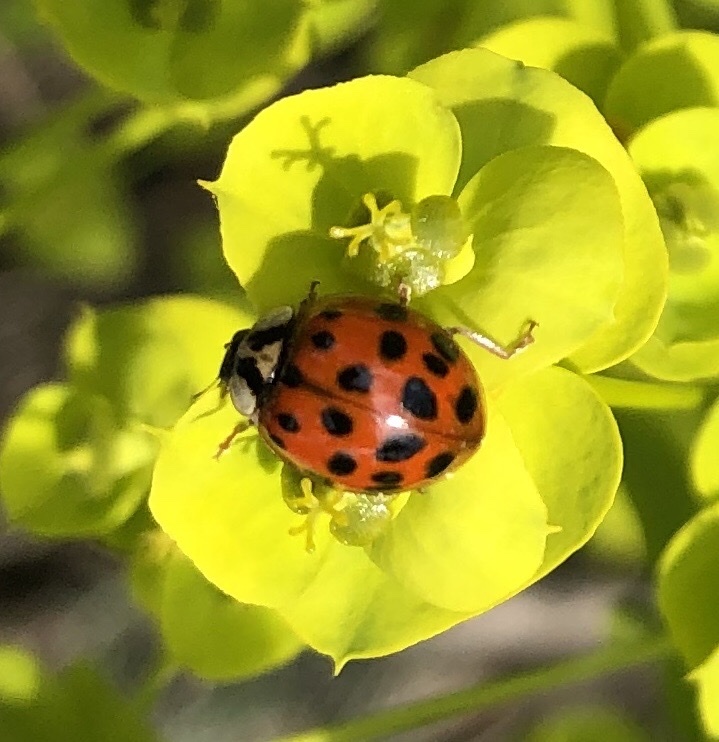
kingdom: Animalia
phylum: Arthropoda
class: Insecta
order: Coleoptera
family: Coccinellidae
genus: Harmonia
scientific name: Harmonia axyridis
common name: Harlequin ladybird
